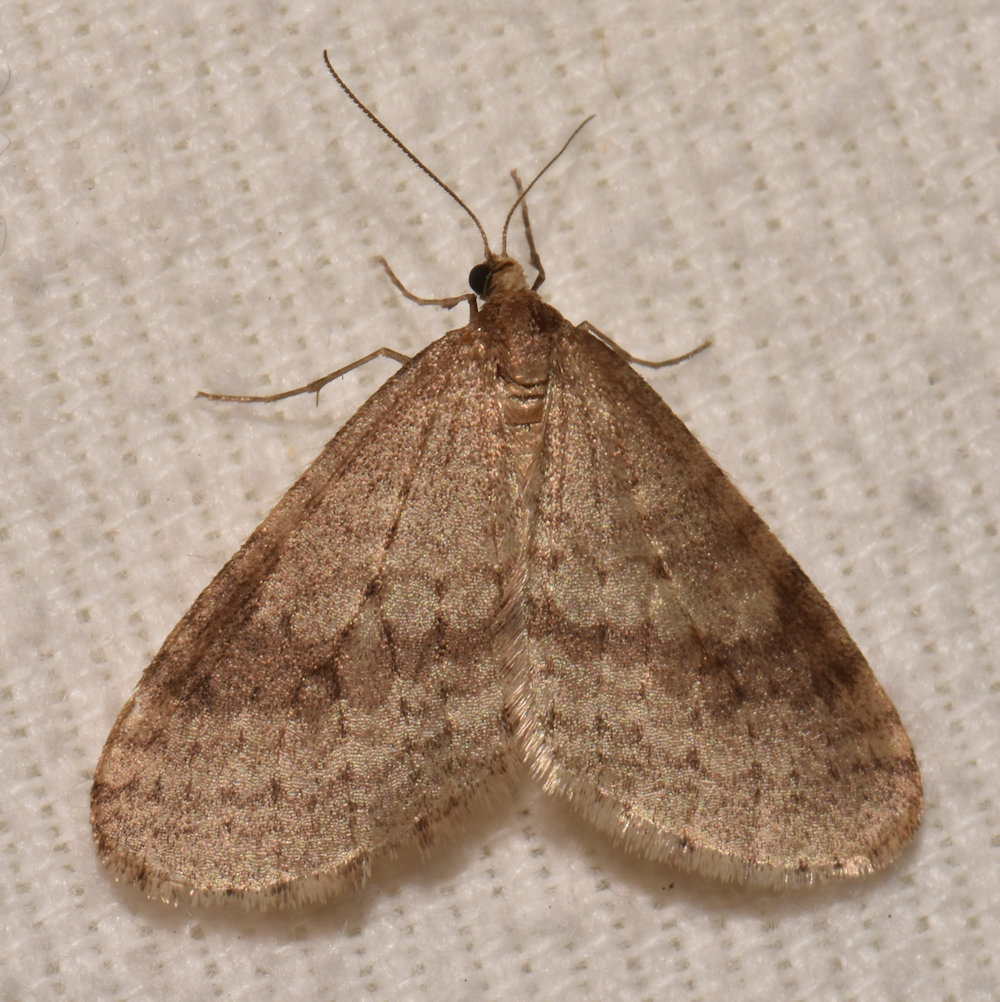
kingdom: Animalia
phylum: Arthropoda
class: Insecta
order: Lepidoptera
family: Geometridae
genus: Operophtera
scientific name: Operophtera bruceata
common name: Bruce spanworm
